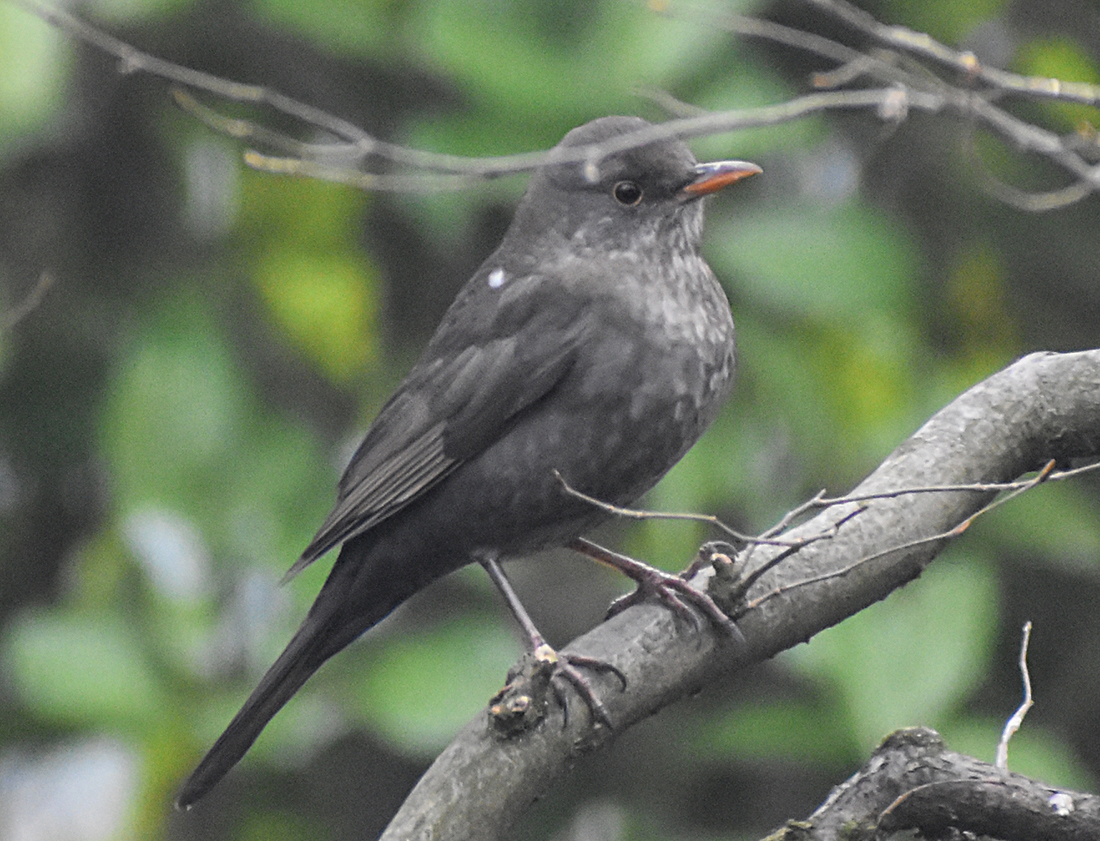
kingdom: Animalia
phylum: Chordata
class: Aves
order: Passeriformes
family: Turdidae
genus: Turdus
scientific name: Turdus merula
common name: Common blackbird
